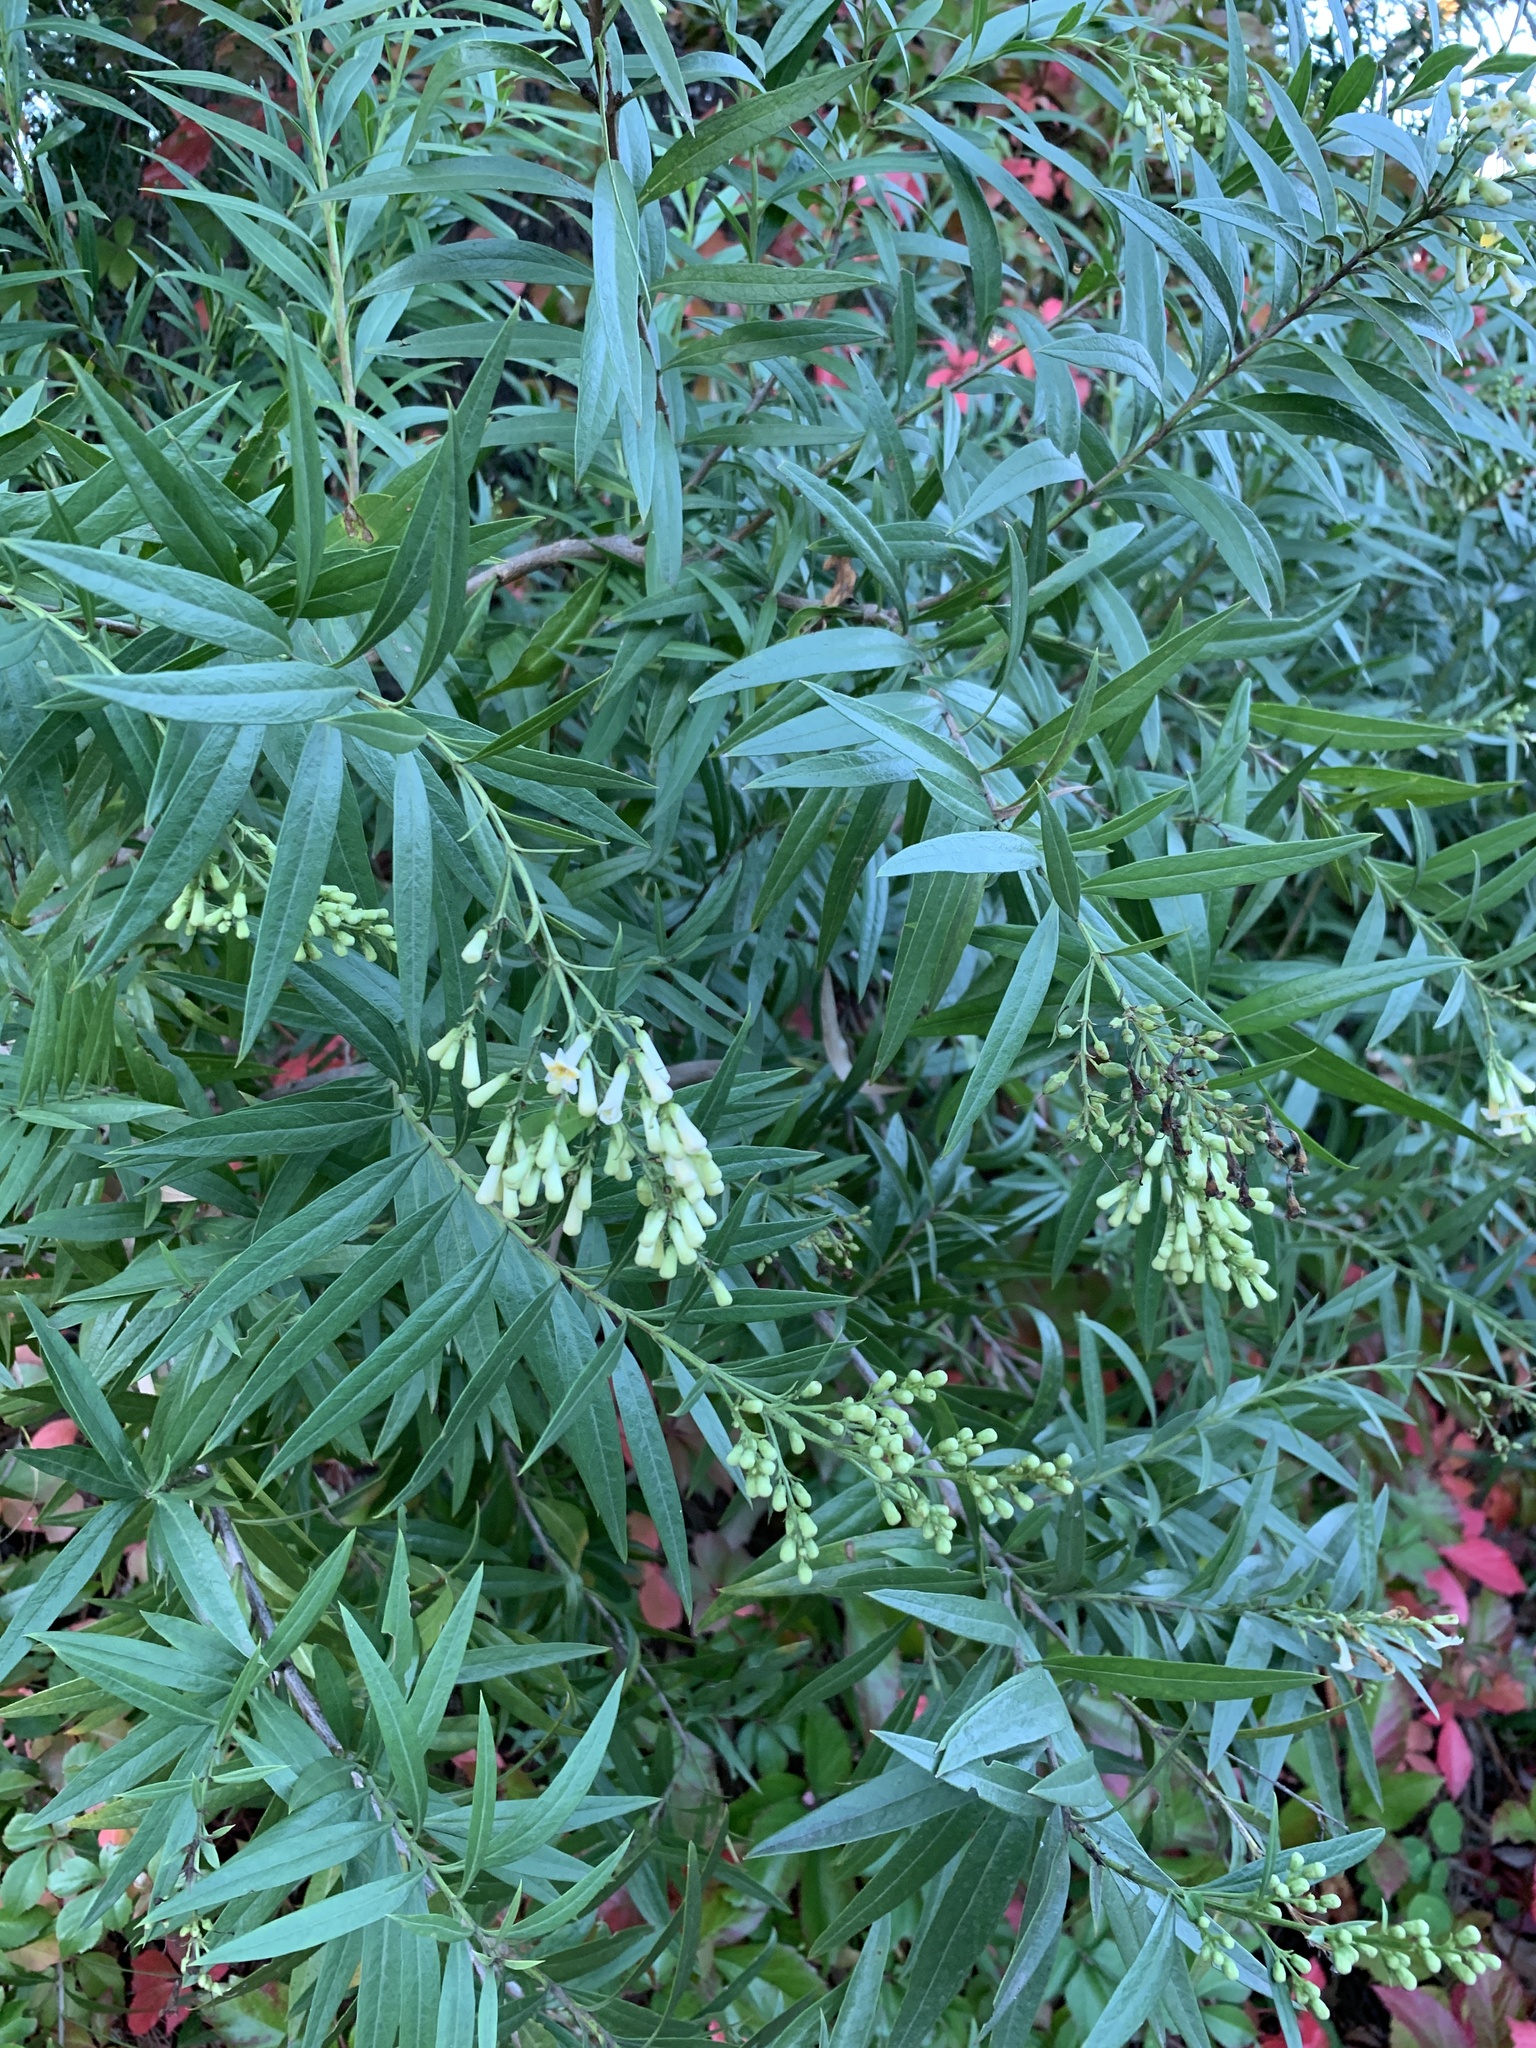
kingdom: Plantae
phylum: Tracheophyta
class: Magnoliopsida
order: Lamiales
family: Scrophulariaceae
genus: Freylinia
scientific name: Freylinia lanceolata
